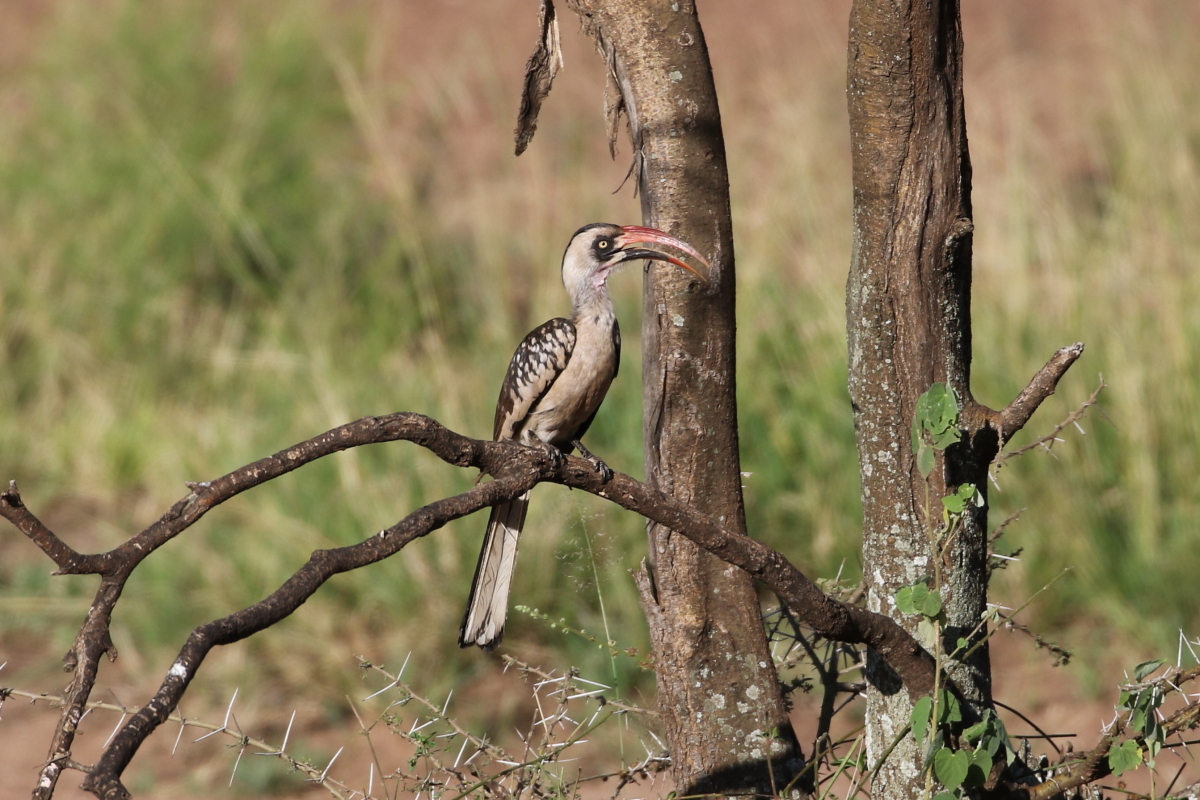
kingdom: Animalia
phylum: Chordata
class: Aves
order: Bucerotiformes
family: Bucerotidae
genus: Tockus
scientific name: Tockus ruahae
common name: Tanzanian red-billed hornbill
